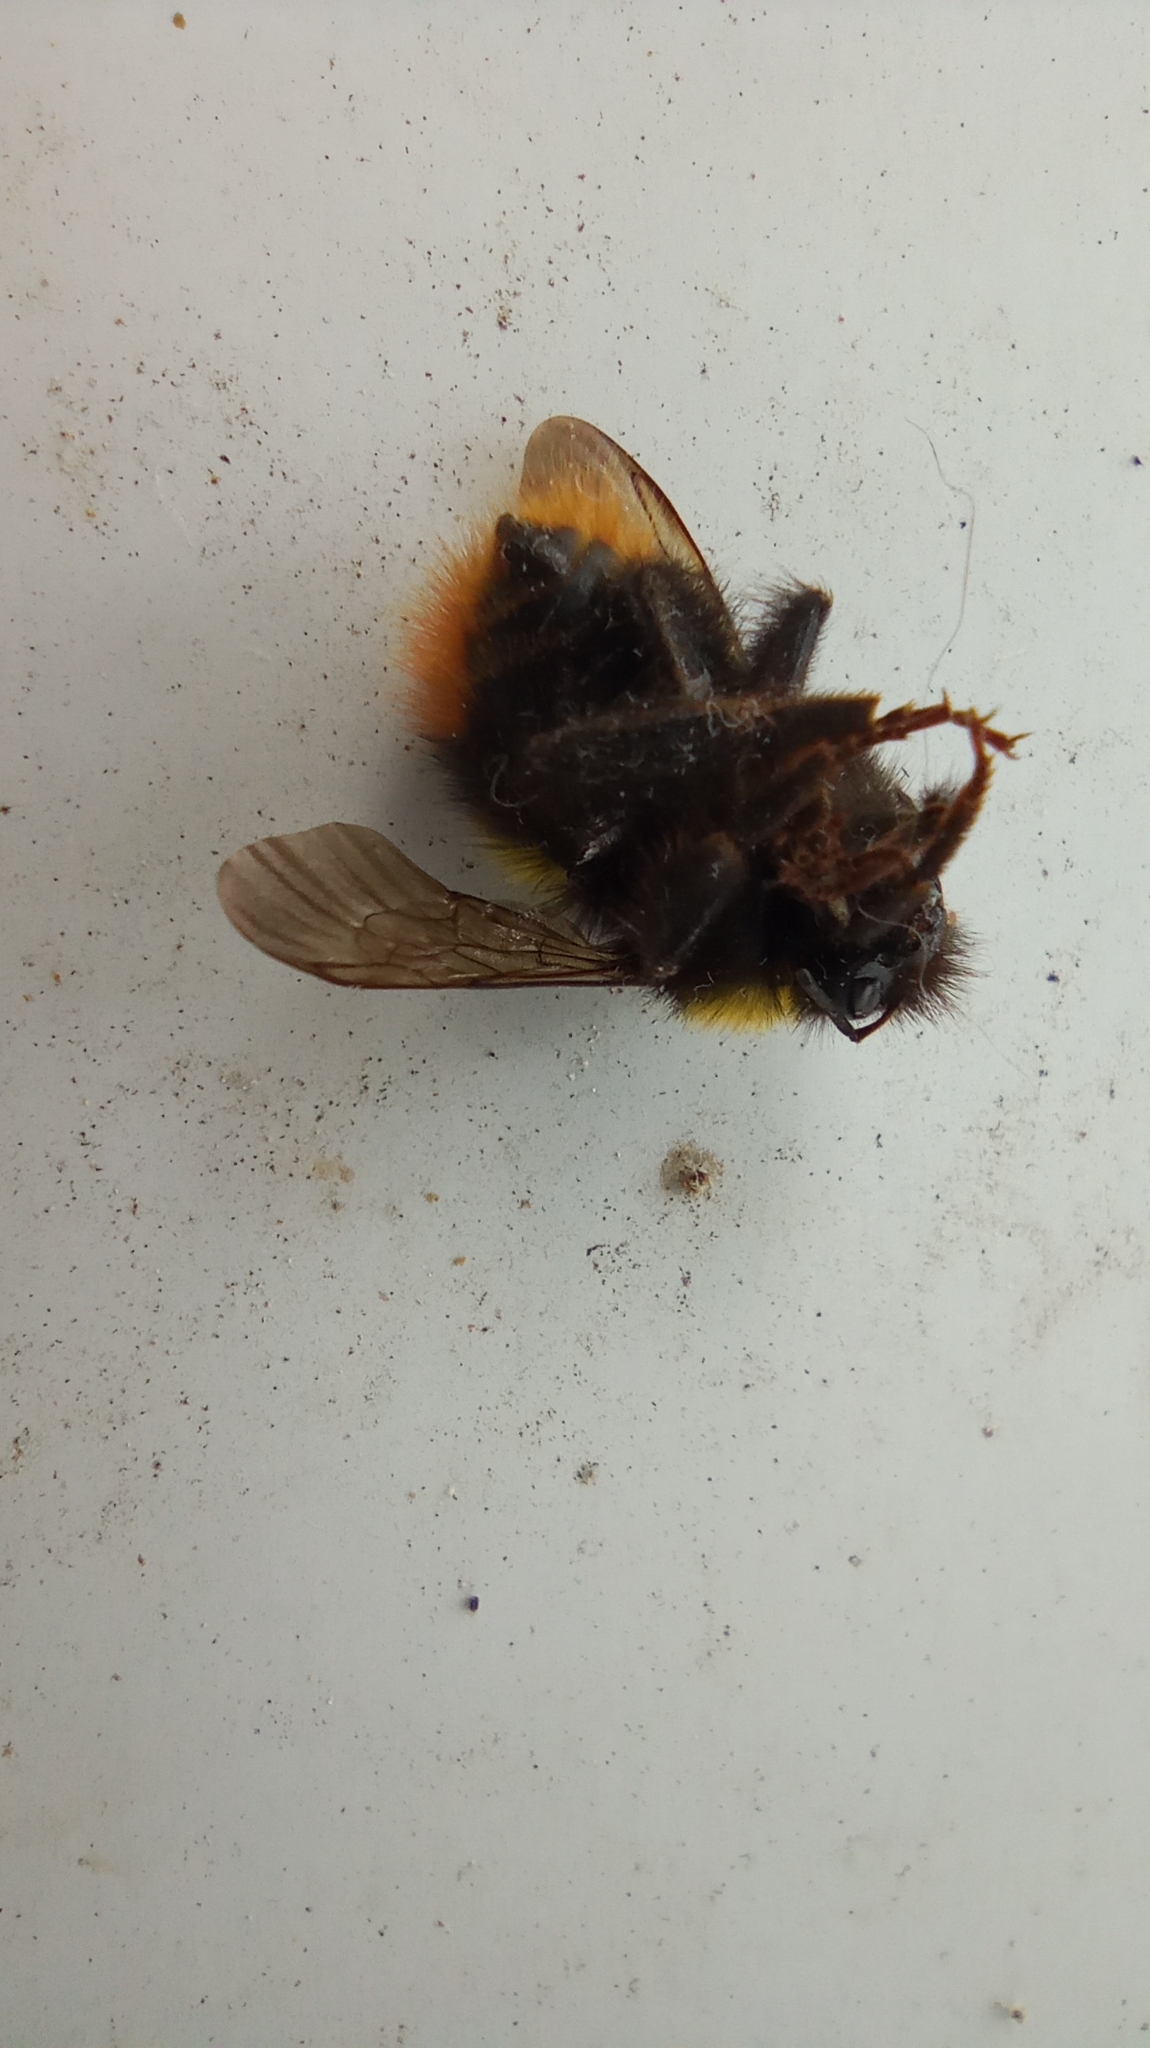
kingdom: Animalia
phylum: Arthropoda
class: Insecta
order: Hymenoptera
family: Apidae
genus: Bombus
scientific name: Bombus pratorum
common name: Early humble-bee
